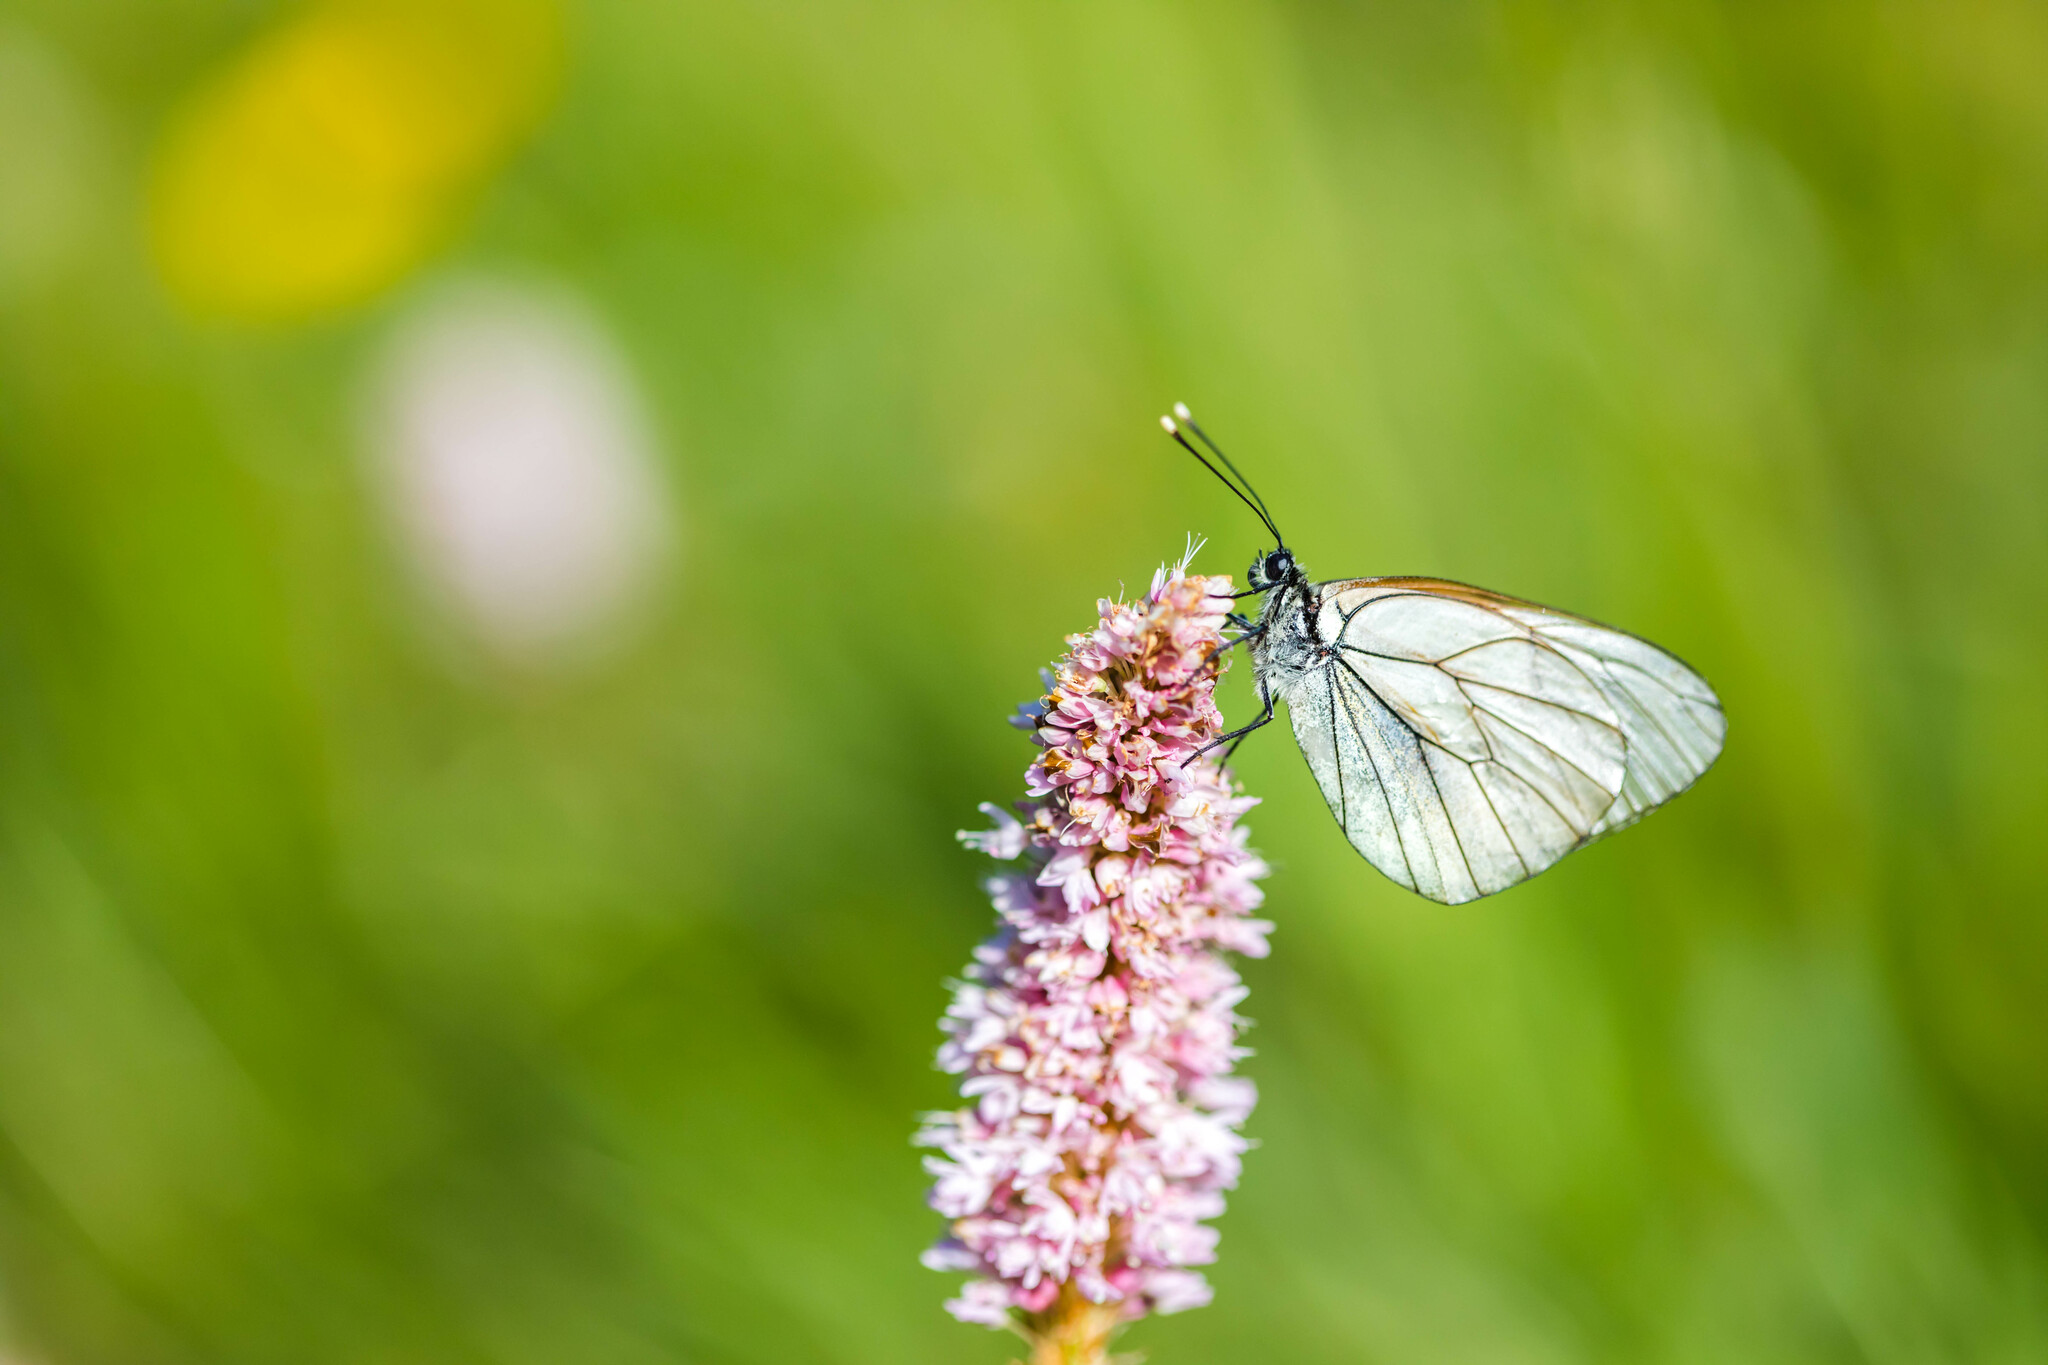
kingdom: Animalia
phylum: Arthropoda
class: Insecta
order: Lepidoptera
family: Pieridae
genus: Aporia
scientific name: Aporia crataegi
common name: Black-veined white
